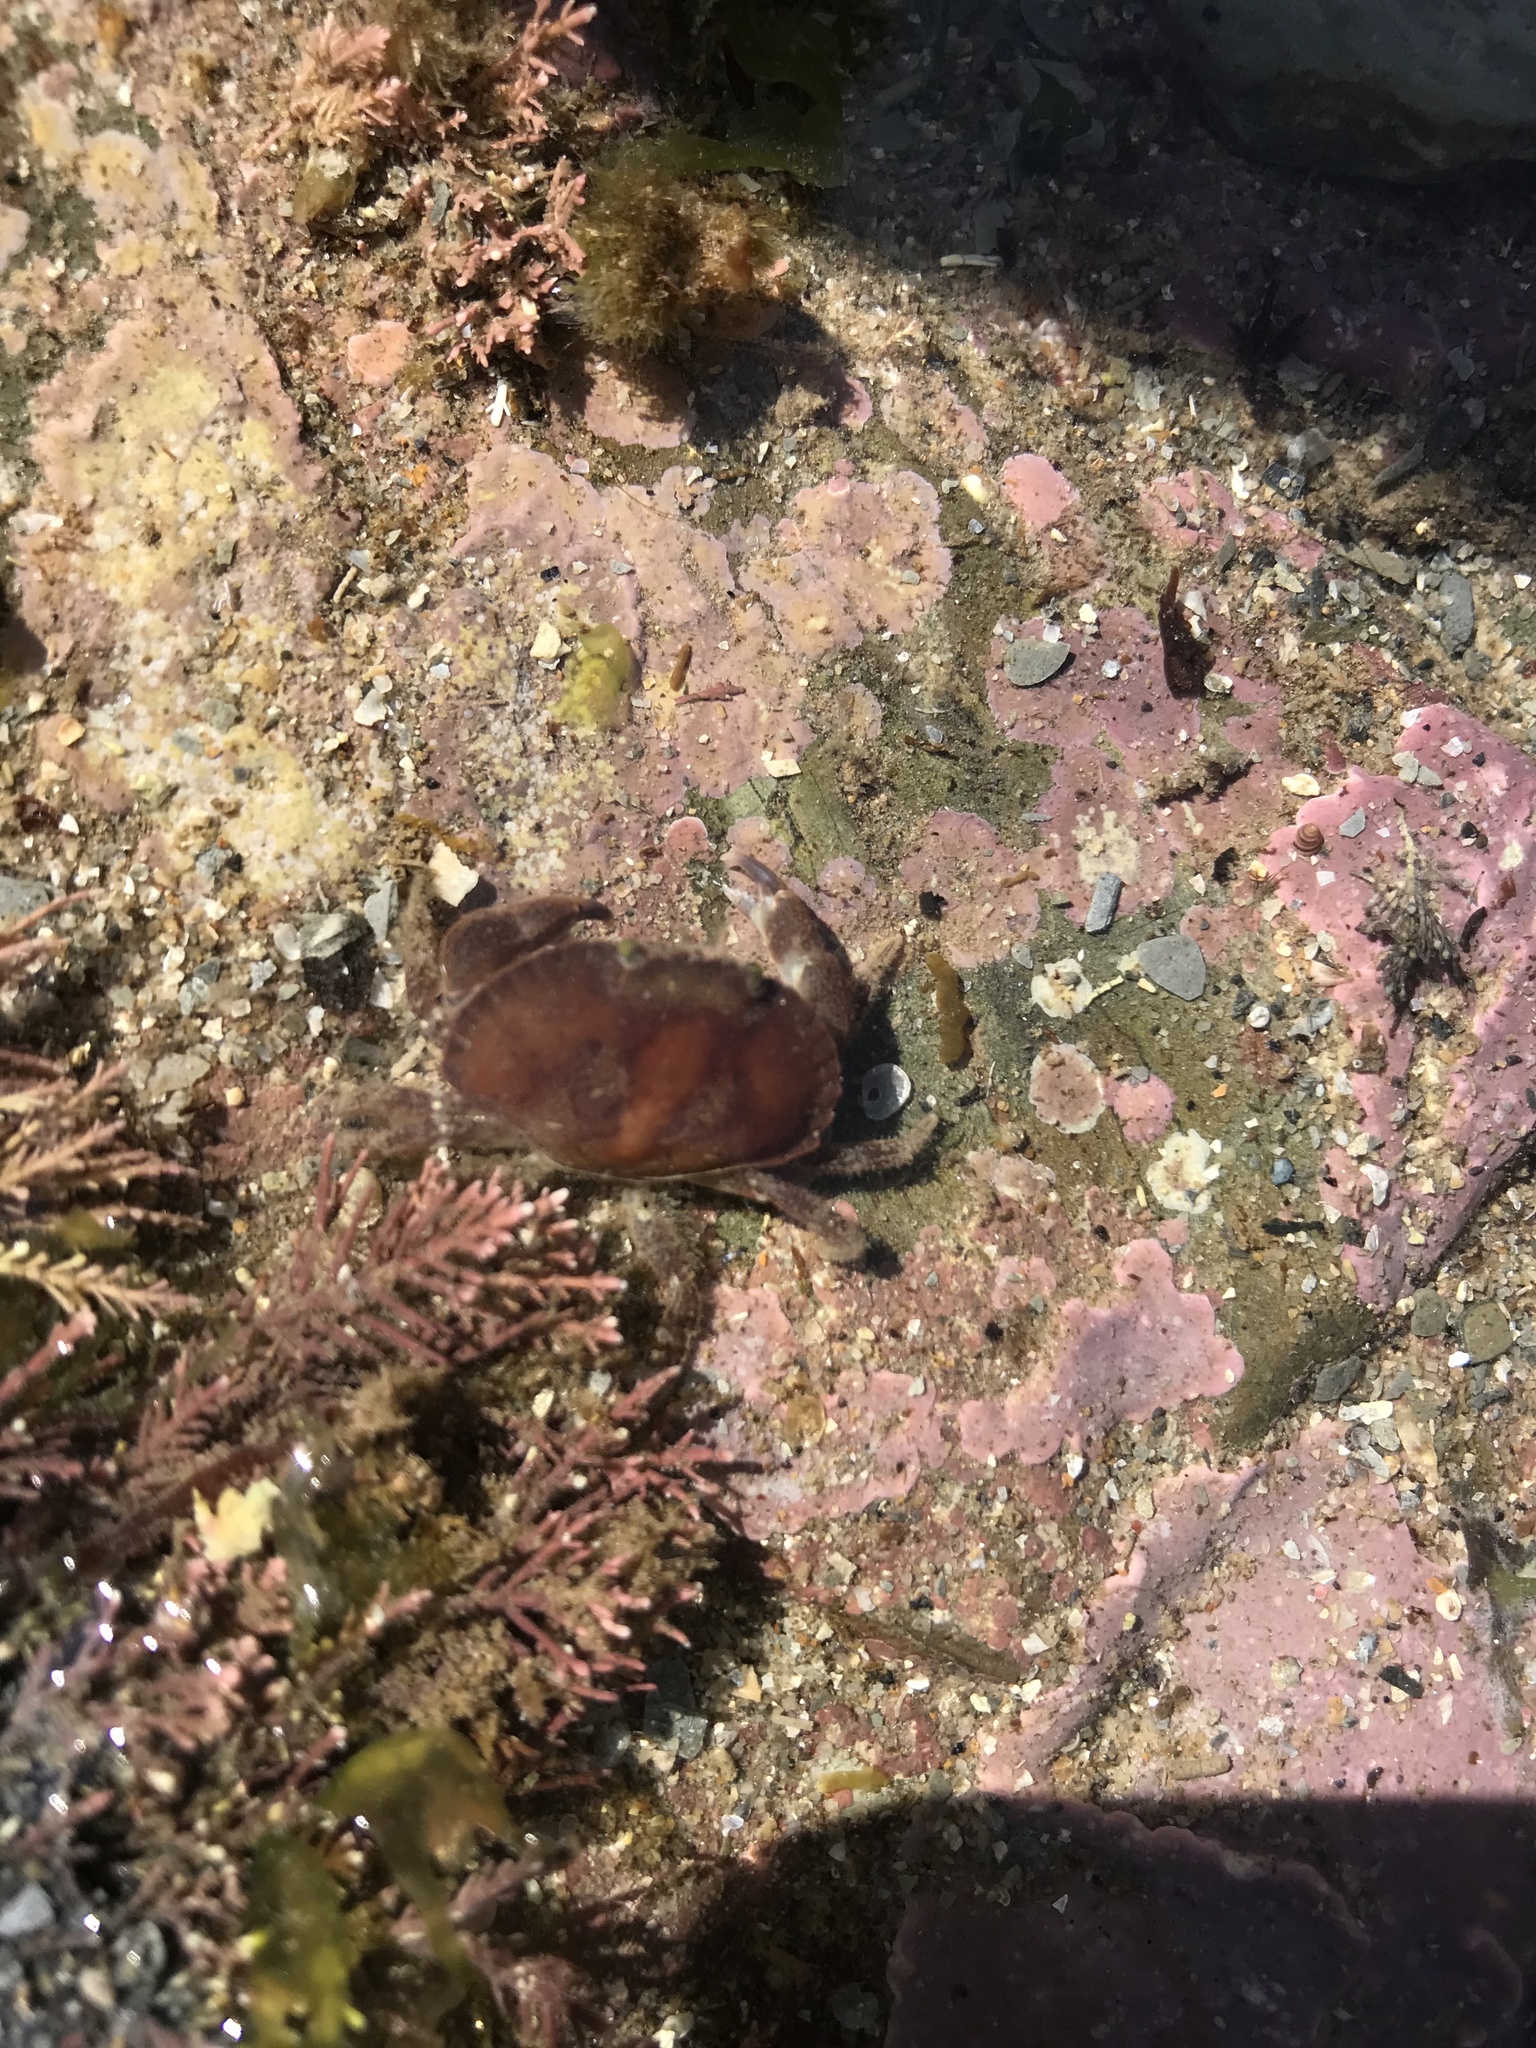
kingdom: Animalia
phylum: Arthropoda
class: Malacostraca
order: Decapoda
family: Cancridae
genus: Cancer
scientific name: Cancer pagurus
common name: Edible crab
